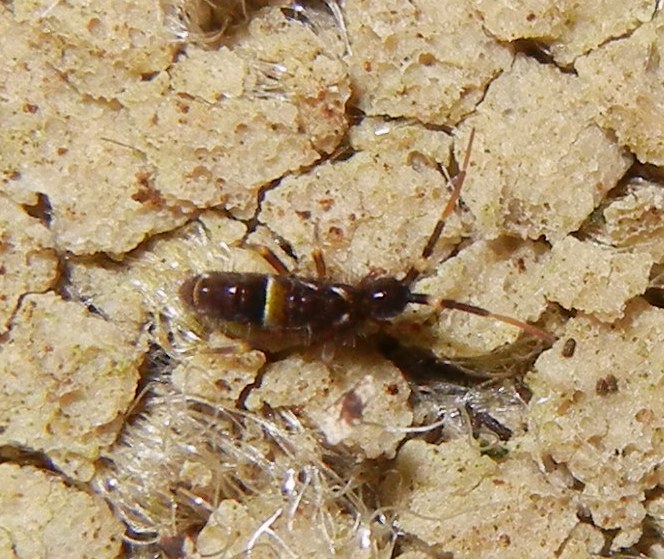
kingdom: Animalia
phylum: Arthropoda
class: Collembola
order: Entomobryomorpha
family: Orchesellidae
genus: Orchesella
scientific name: Orchesella cincta
